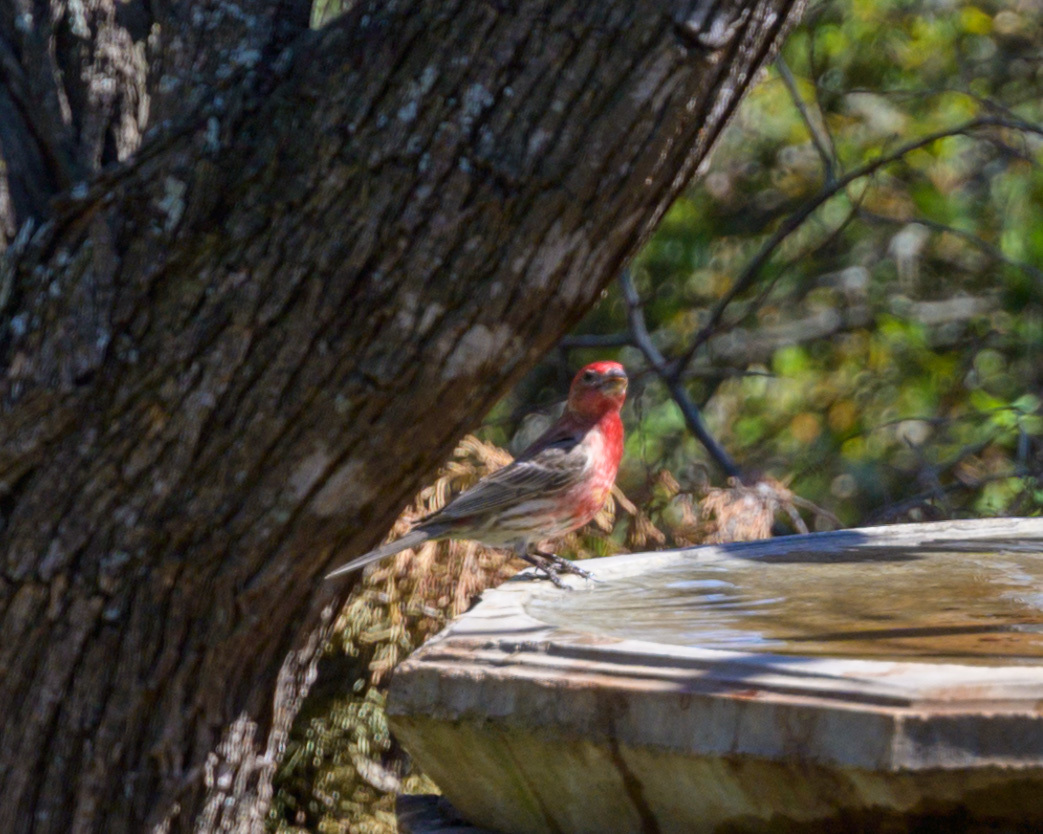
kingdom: Animalia
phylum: Chordata
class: Aves
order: Passeriformes
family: Fringillidae
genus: Haemorhous
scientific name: Haemorhous mexicanus
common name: House finch
